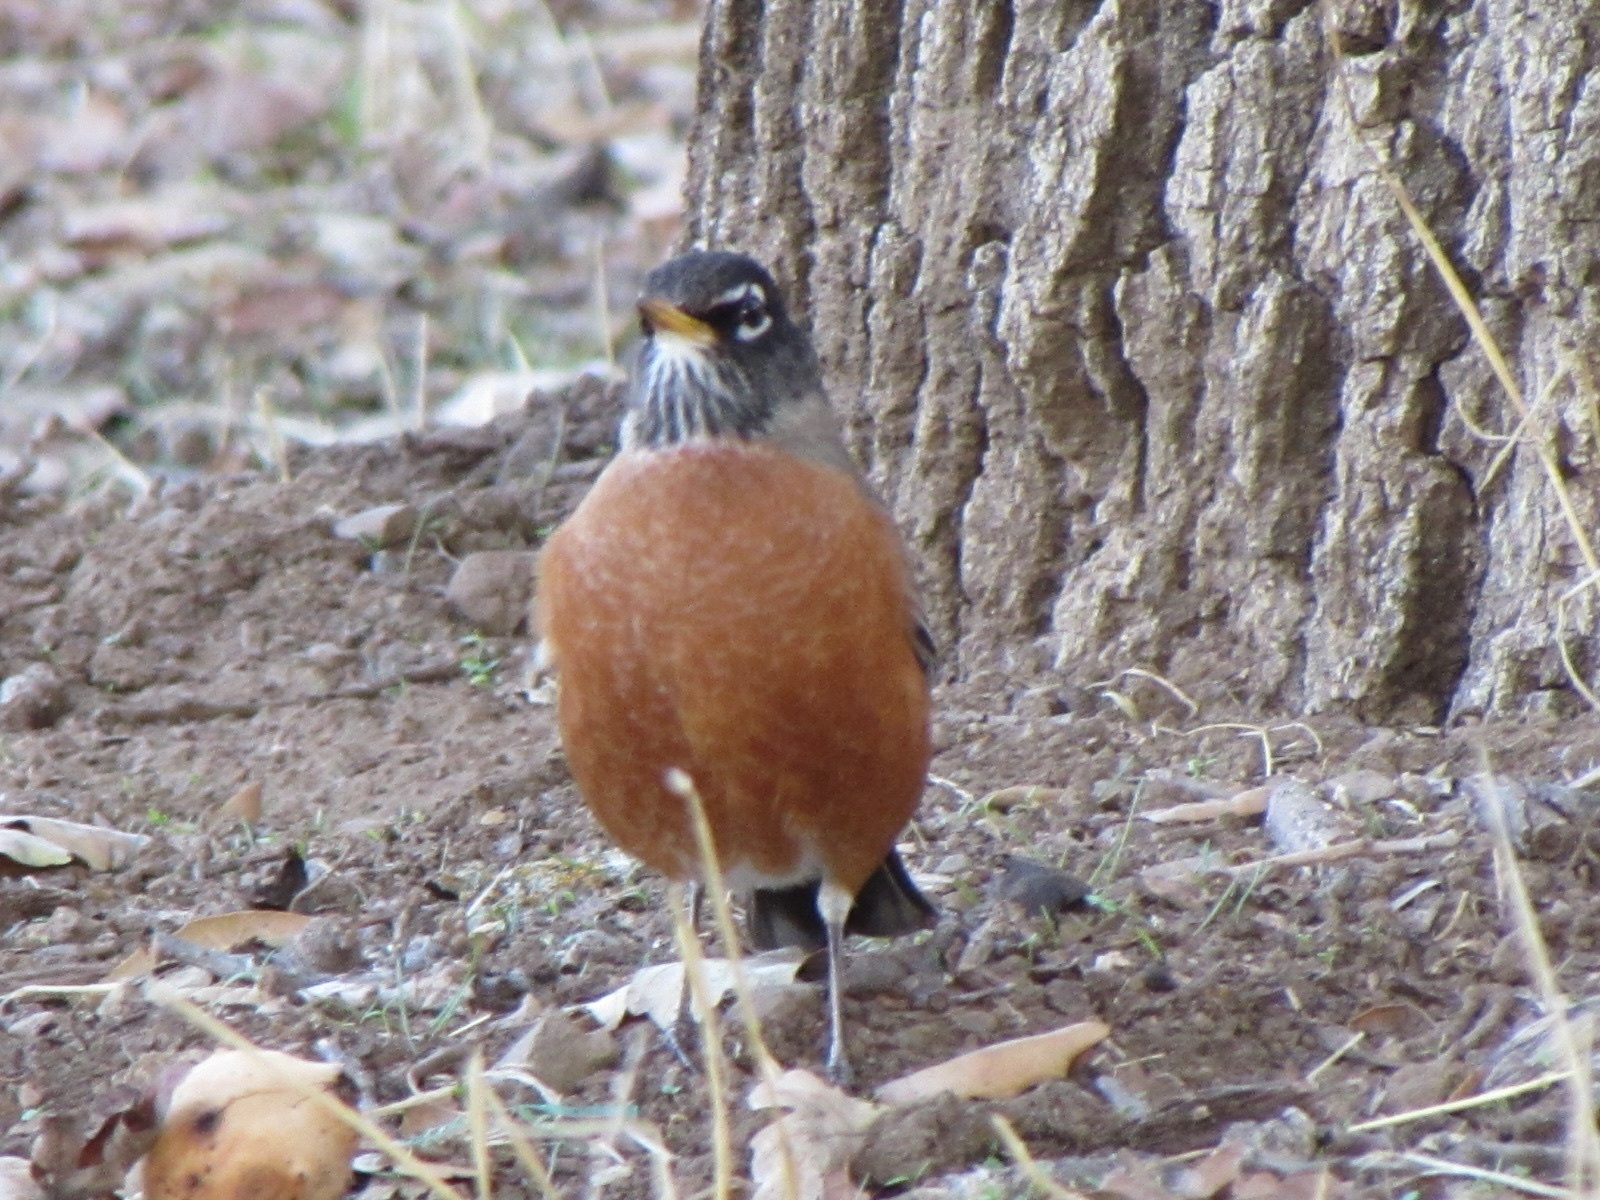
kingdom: Animalia
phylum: Chordata
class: Aves
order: Passeriformes
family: Turdidae
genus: Turdus
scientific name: Turdus migratorius
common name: American robin
